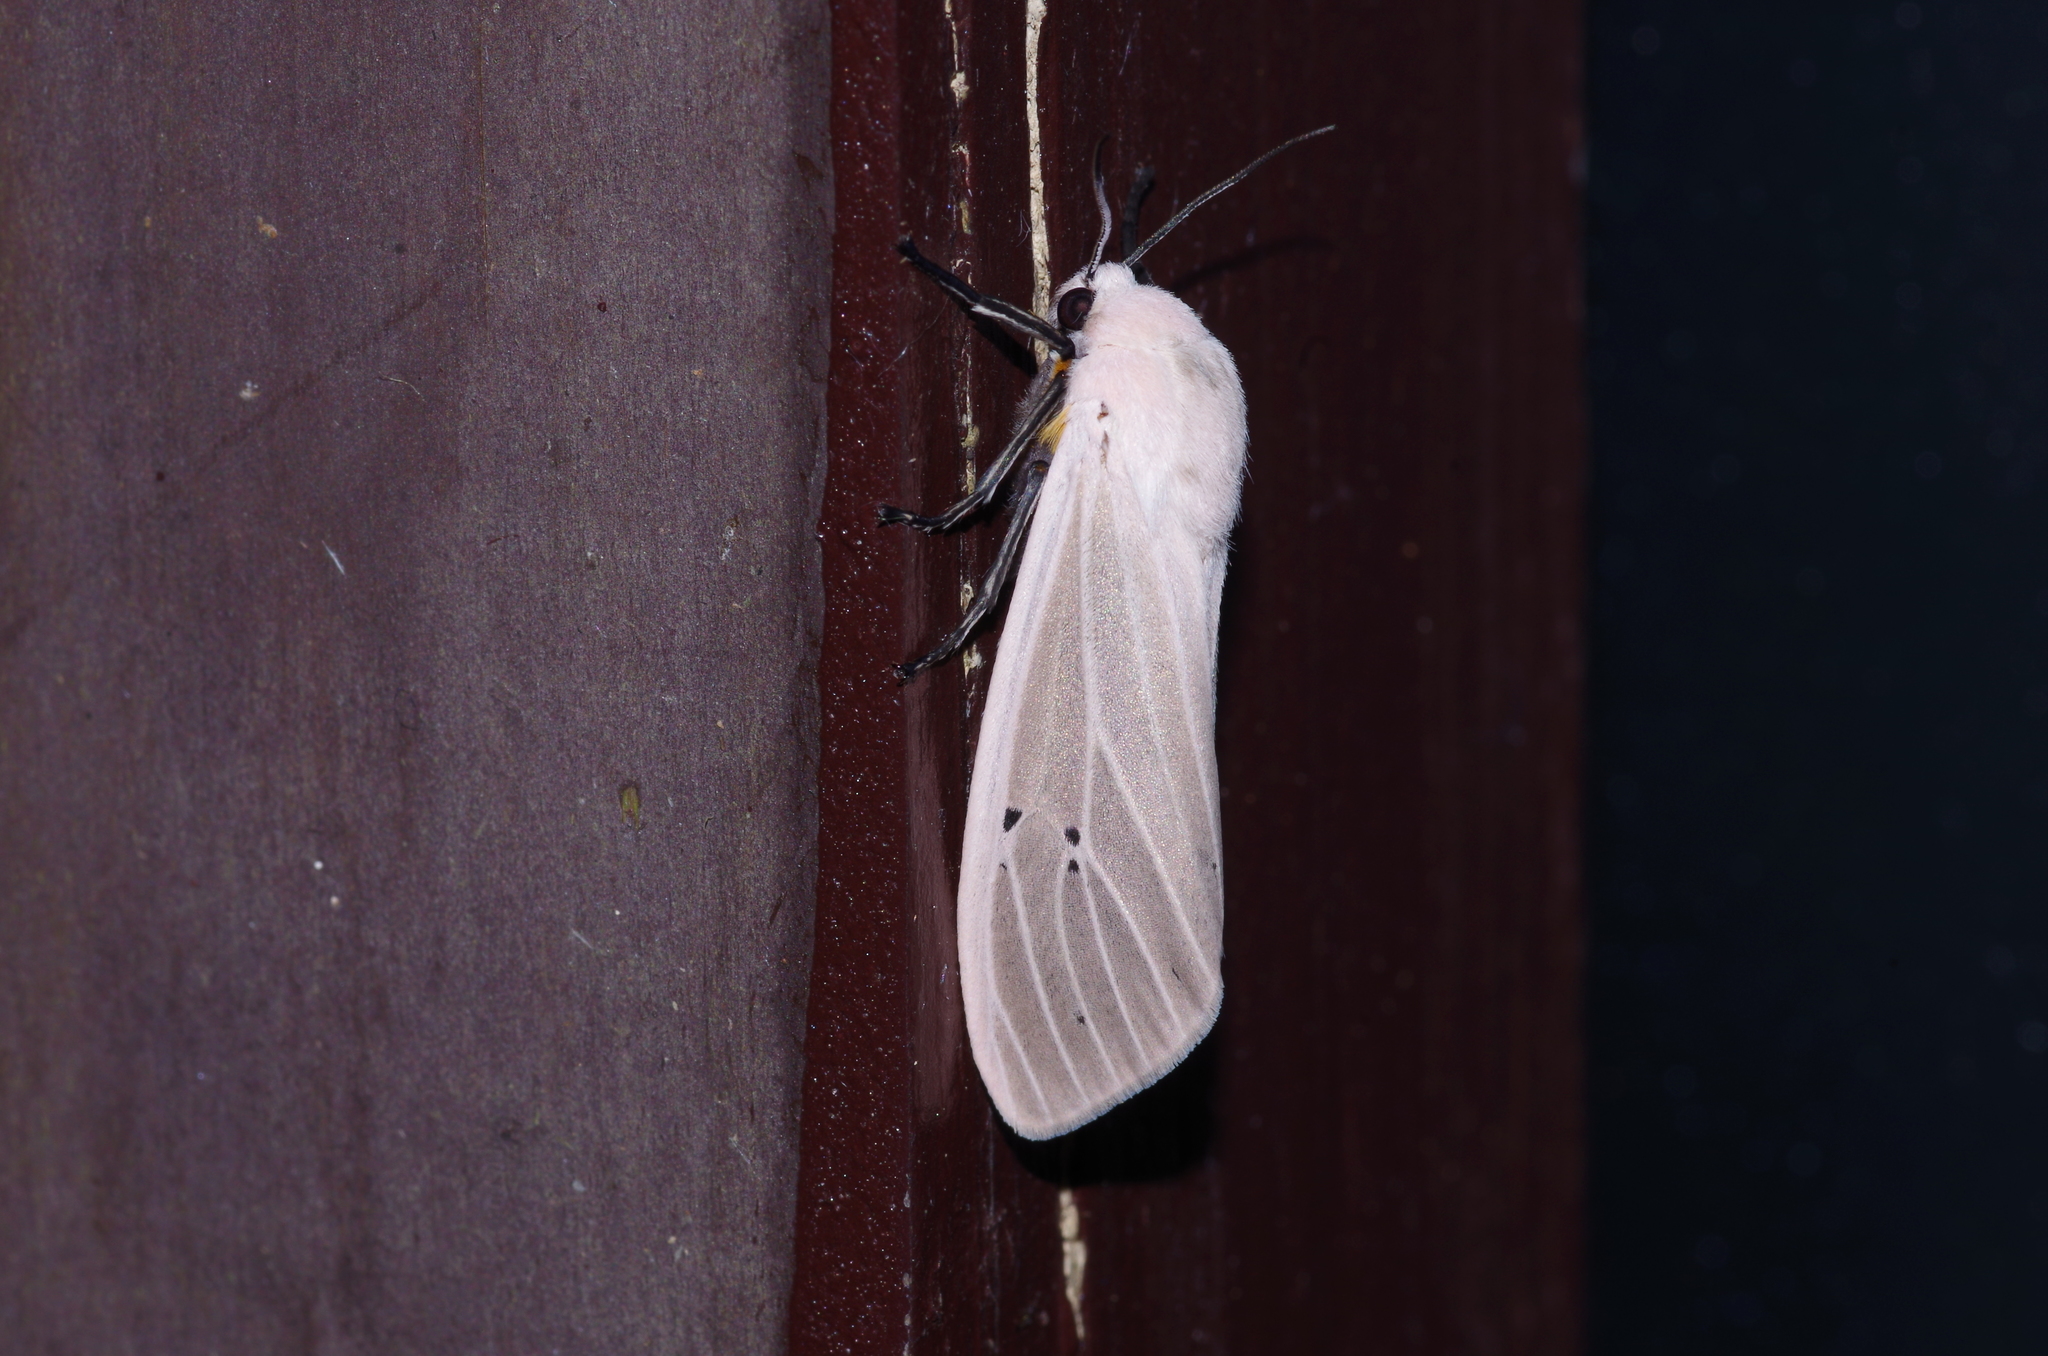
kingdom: Animalia
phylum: Arthropoda
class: Insecta
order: Lepidoptera
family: Erebidae
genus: Creatonotos
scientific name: Creatonotos transiens
